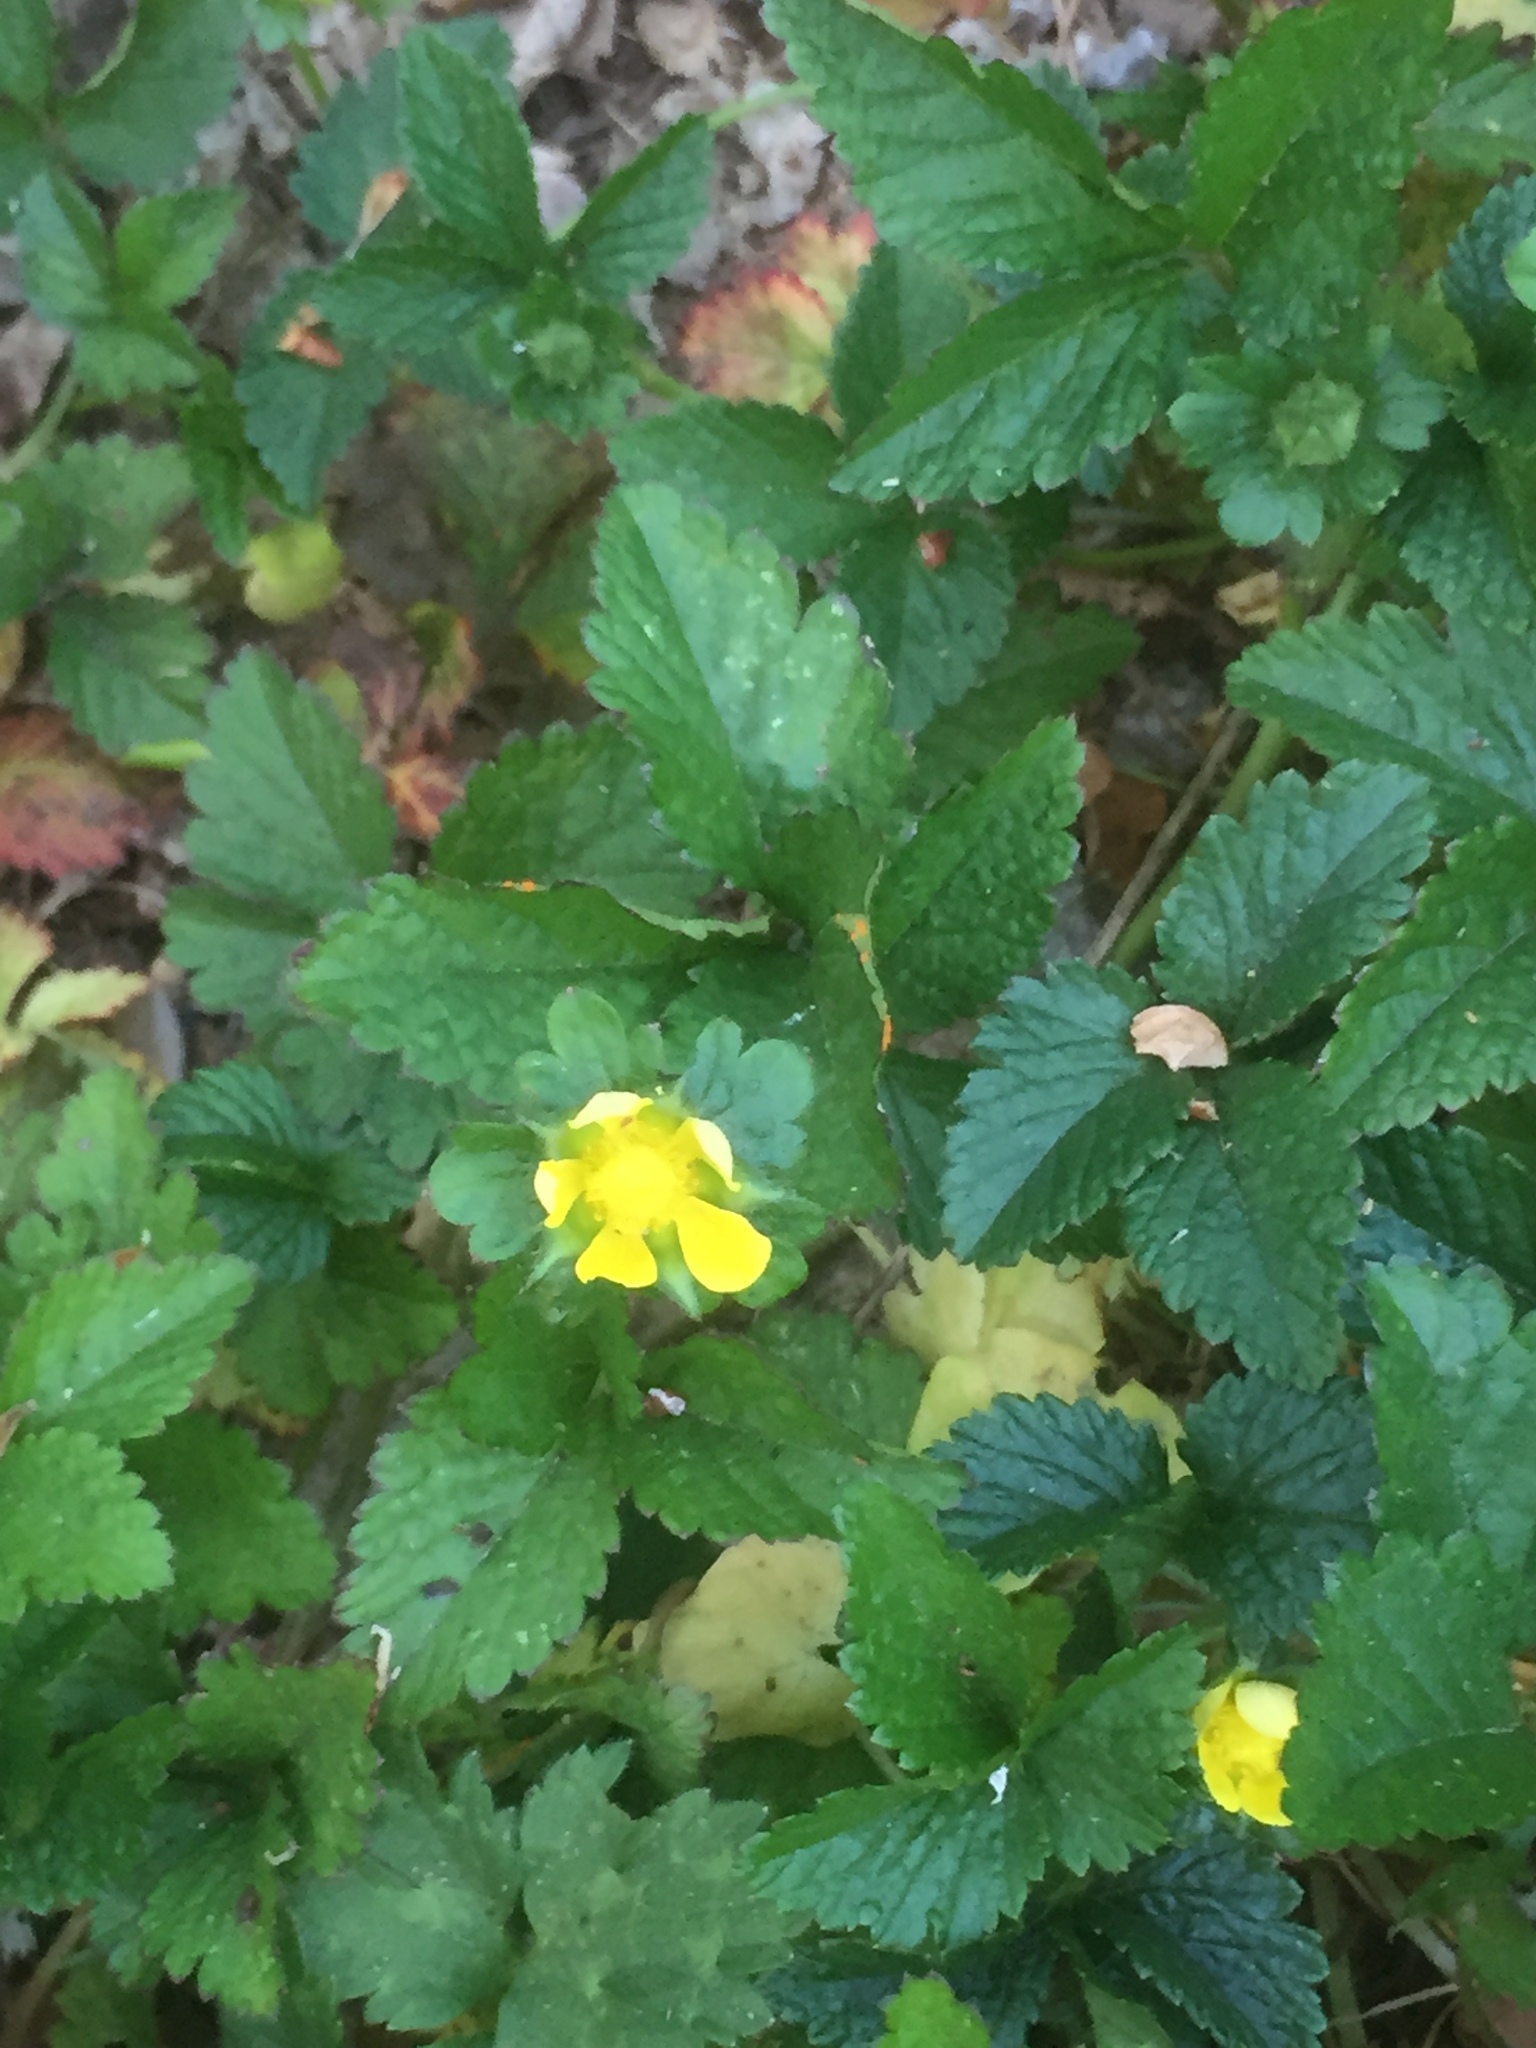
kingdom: Plantae
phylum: Tracheophyta
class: Magnoliopsida
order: Rosales
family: Rosaceae
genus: Potentilla
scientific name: Potentilla indica
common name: Yellow-flowered strawberry
